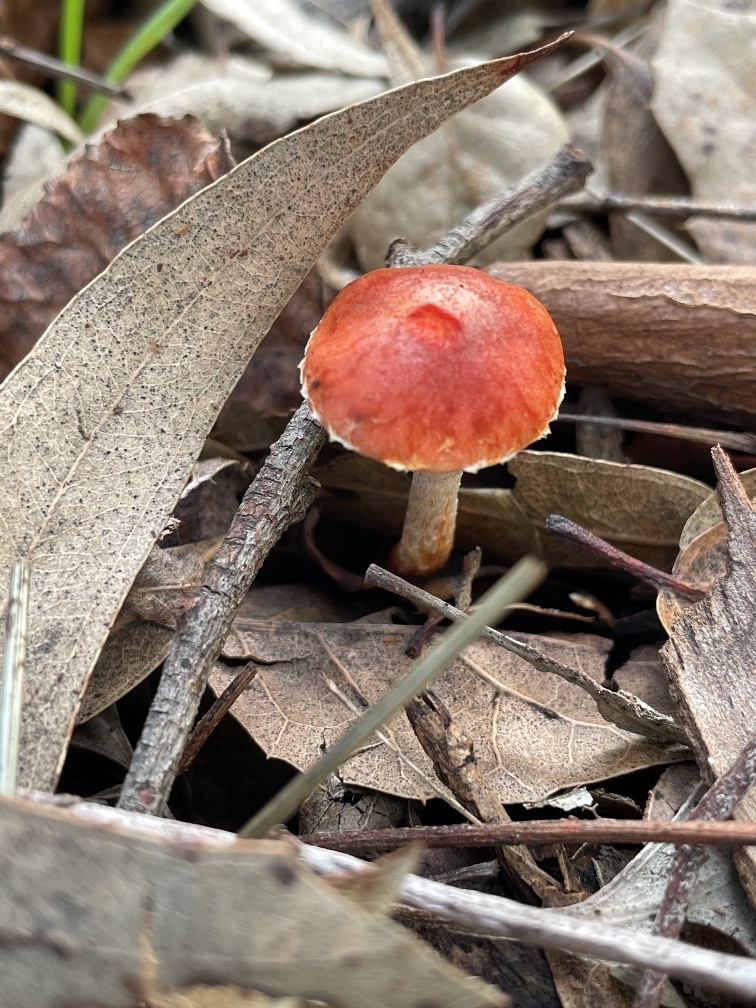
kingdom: Fungi
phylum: Basidiomycota
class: Agaricomycetes
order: Agaricales
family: Strophariaceae
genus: Leratiomyces
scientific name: Leratiomyces ceres
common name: Redlead roundhead
